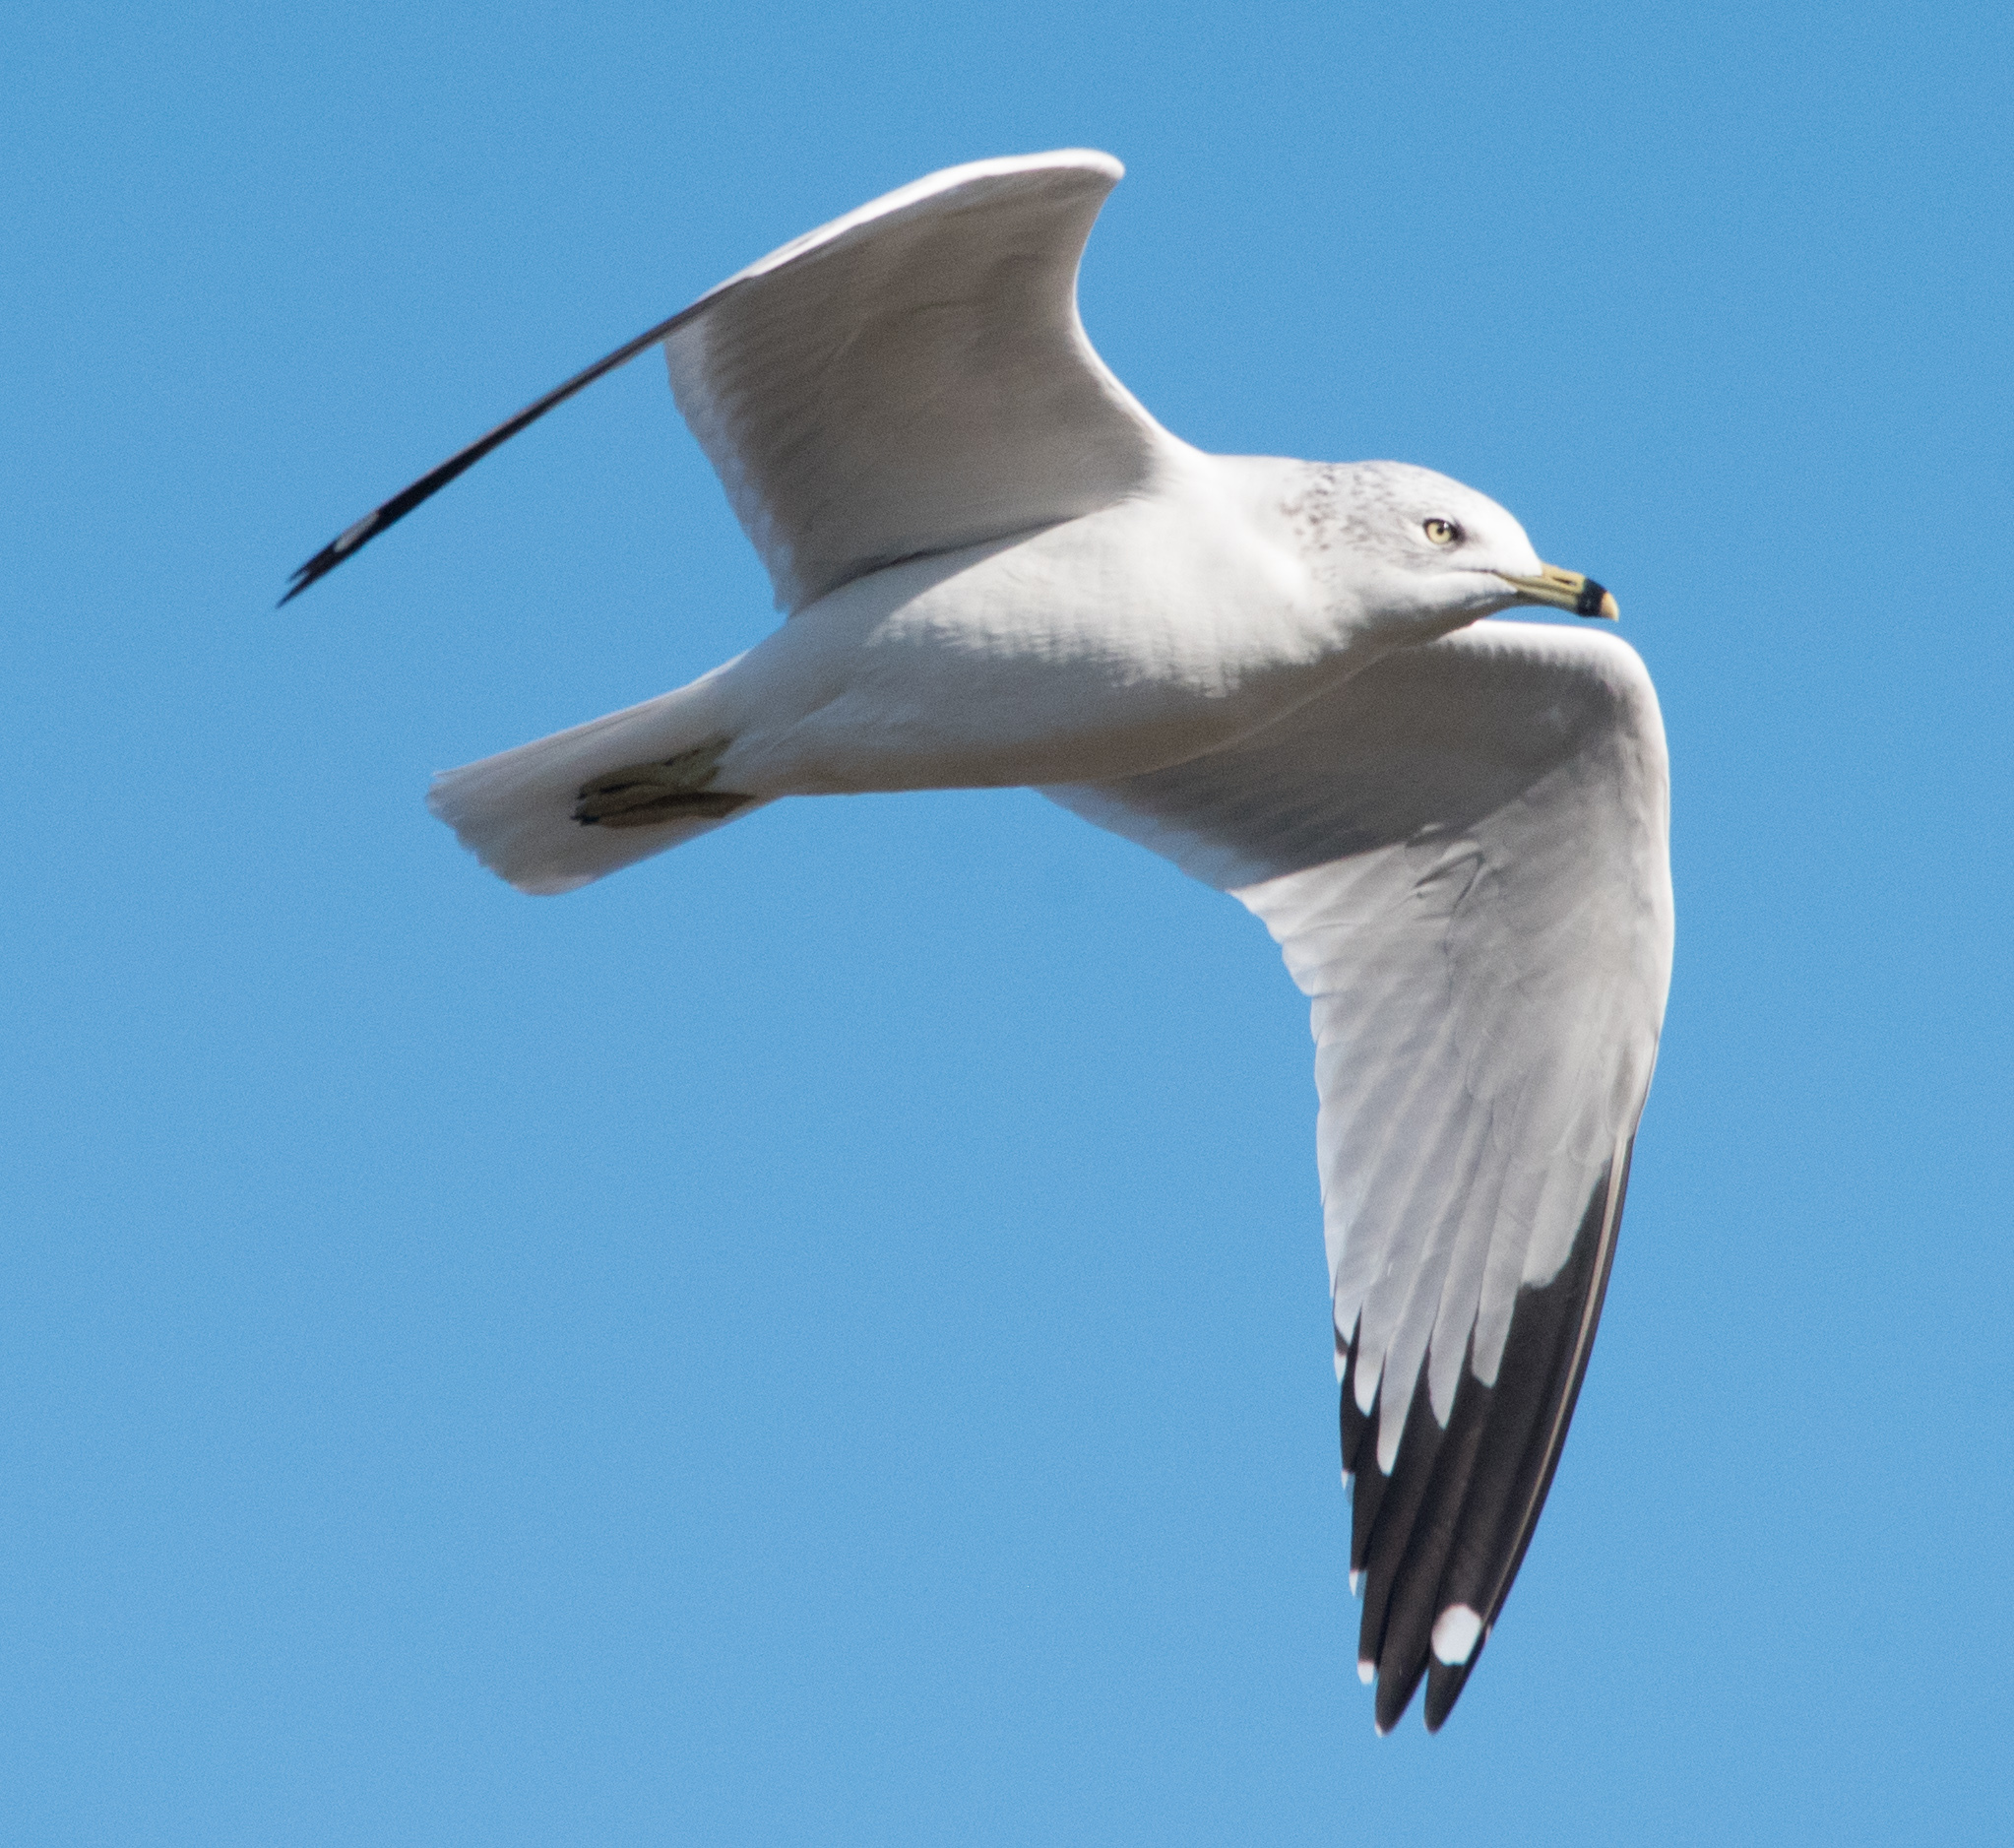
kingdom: Animalia
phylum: Chordata
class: Aves
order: Charadriiformes
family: Laridae
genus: Larus
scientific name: Larus delawarensis
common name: Ring-billed gull
